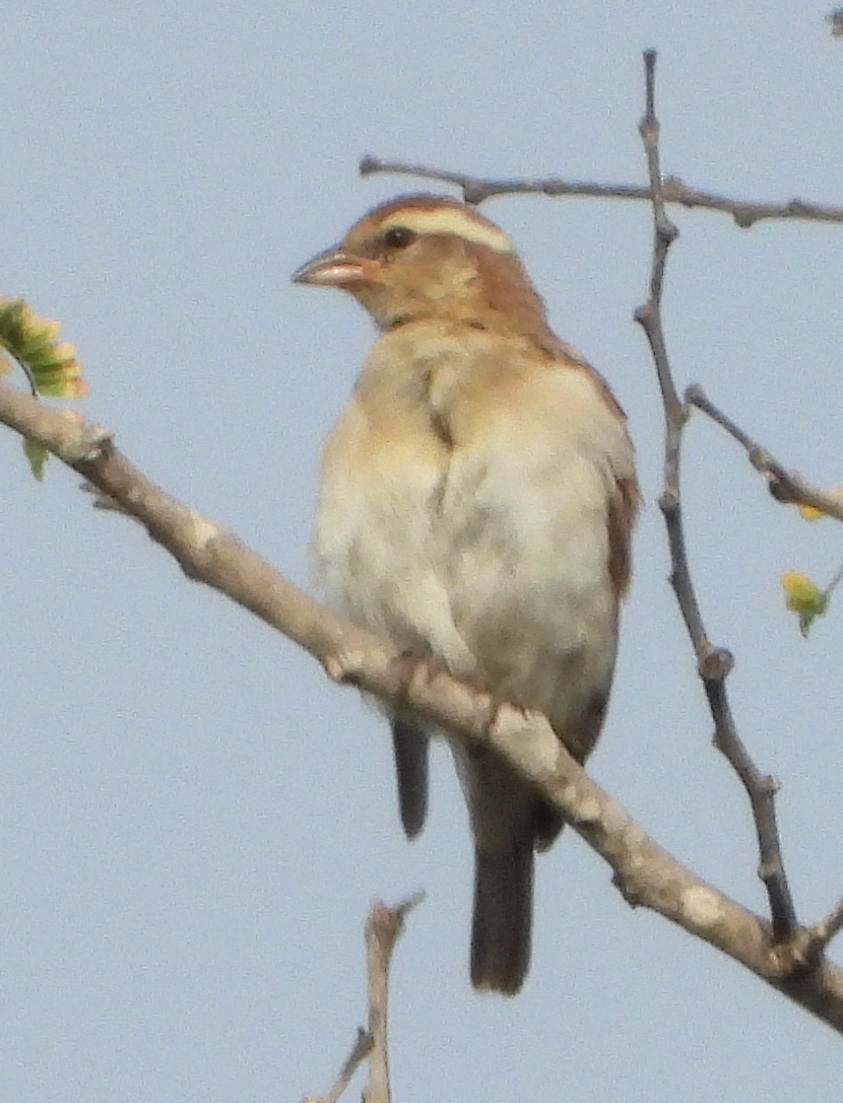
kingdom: Animalia
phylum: Chordata
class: Aves
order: Passeriformes
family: Passeridae
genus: Gymnoris
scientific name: Gymnoris superciliaris
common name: Yellow-throated petronia
